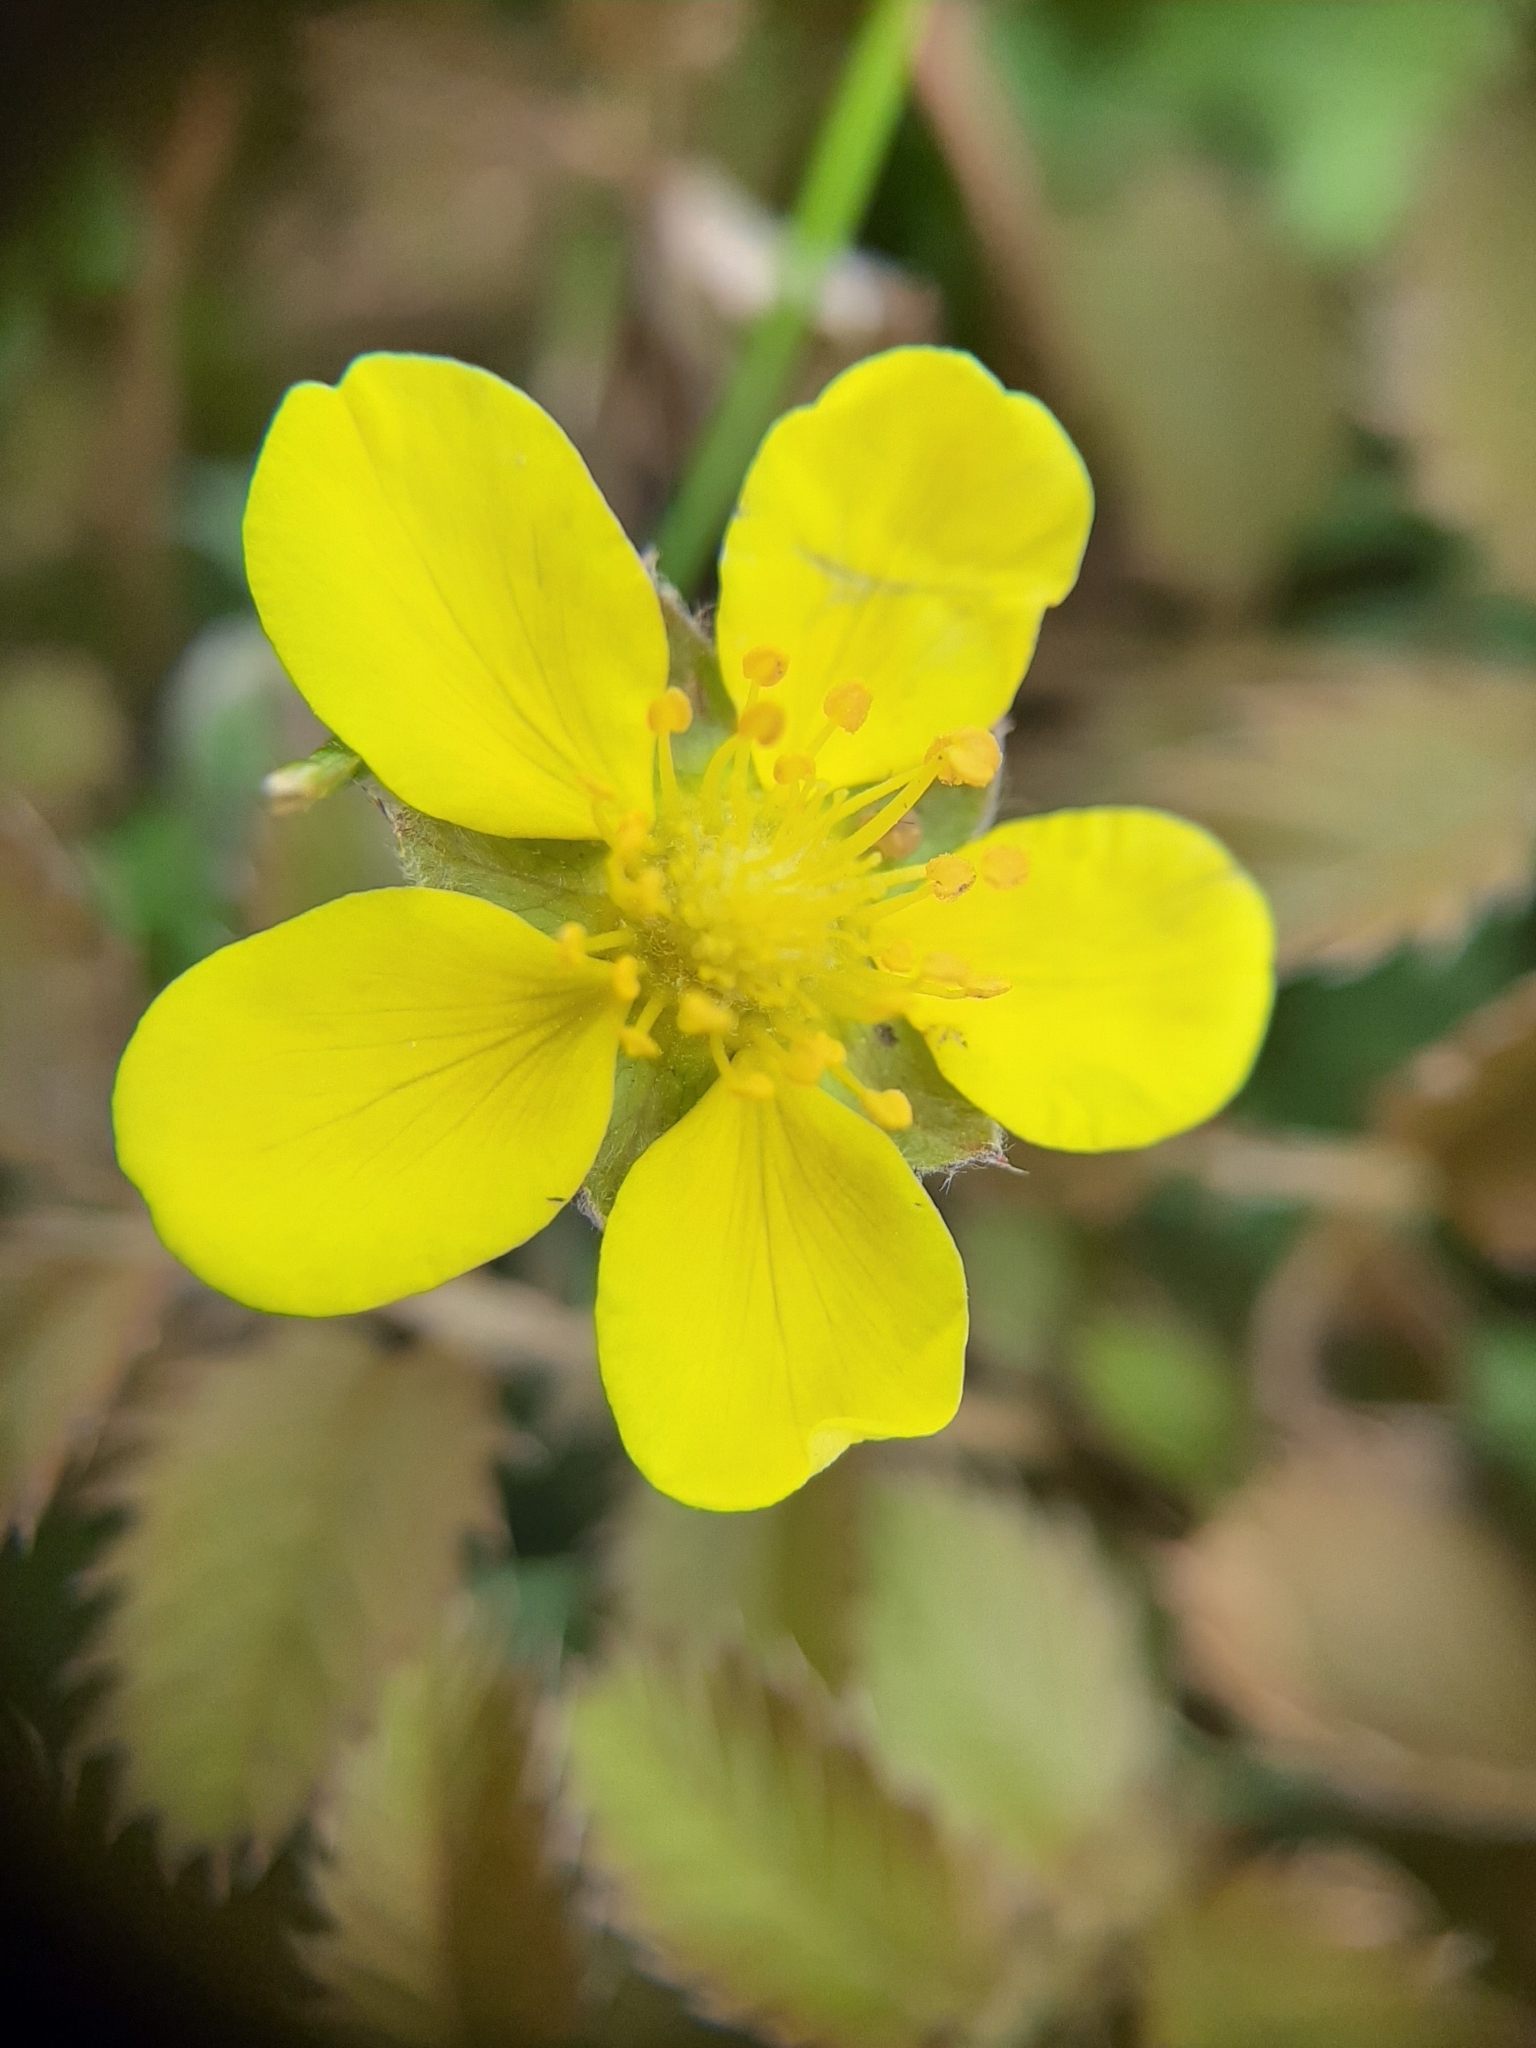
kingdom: Plantae
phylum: Tracheophyta
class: Magnoliopsida
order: Rosales
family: Rosaceae
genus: Argentina
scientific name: Argentina anserinoides
